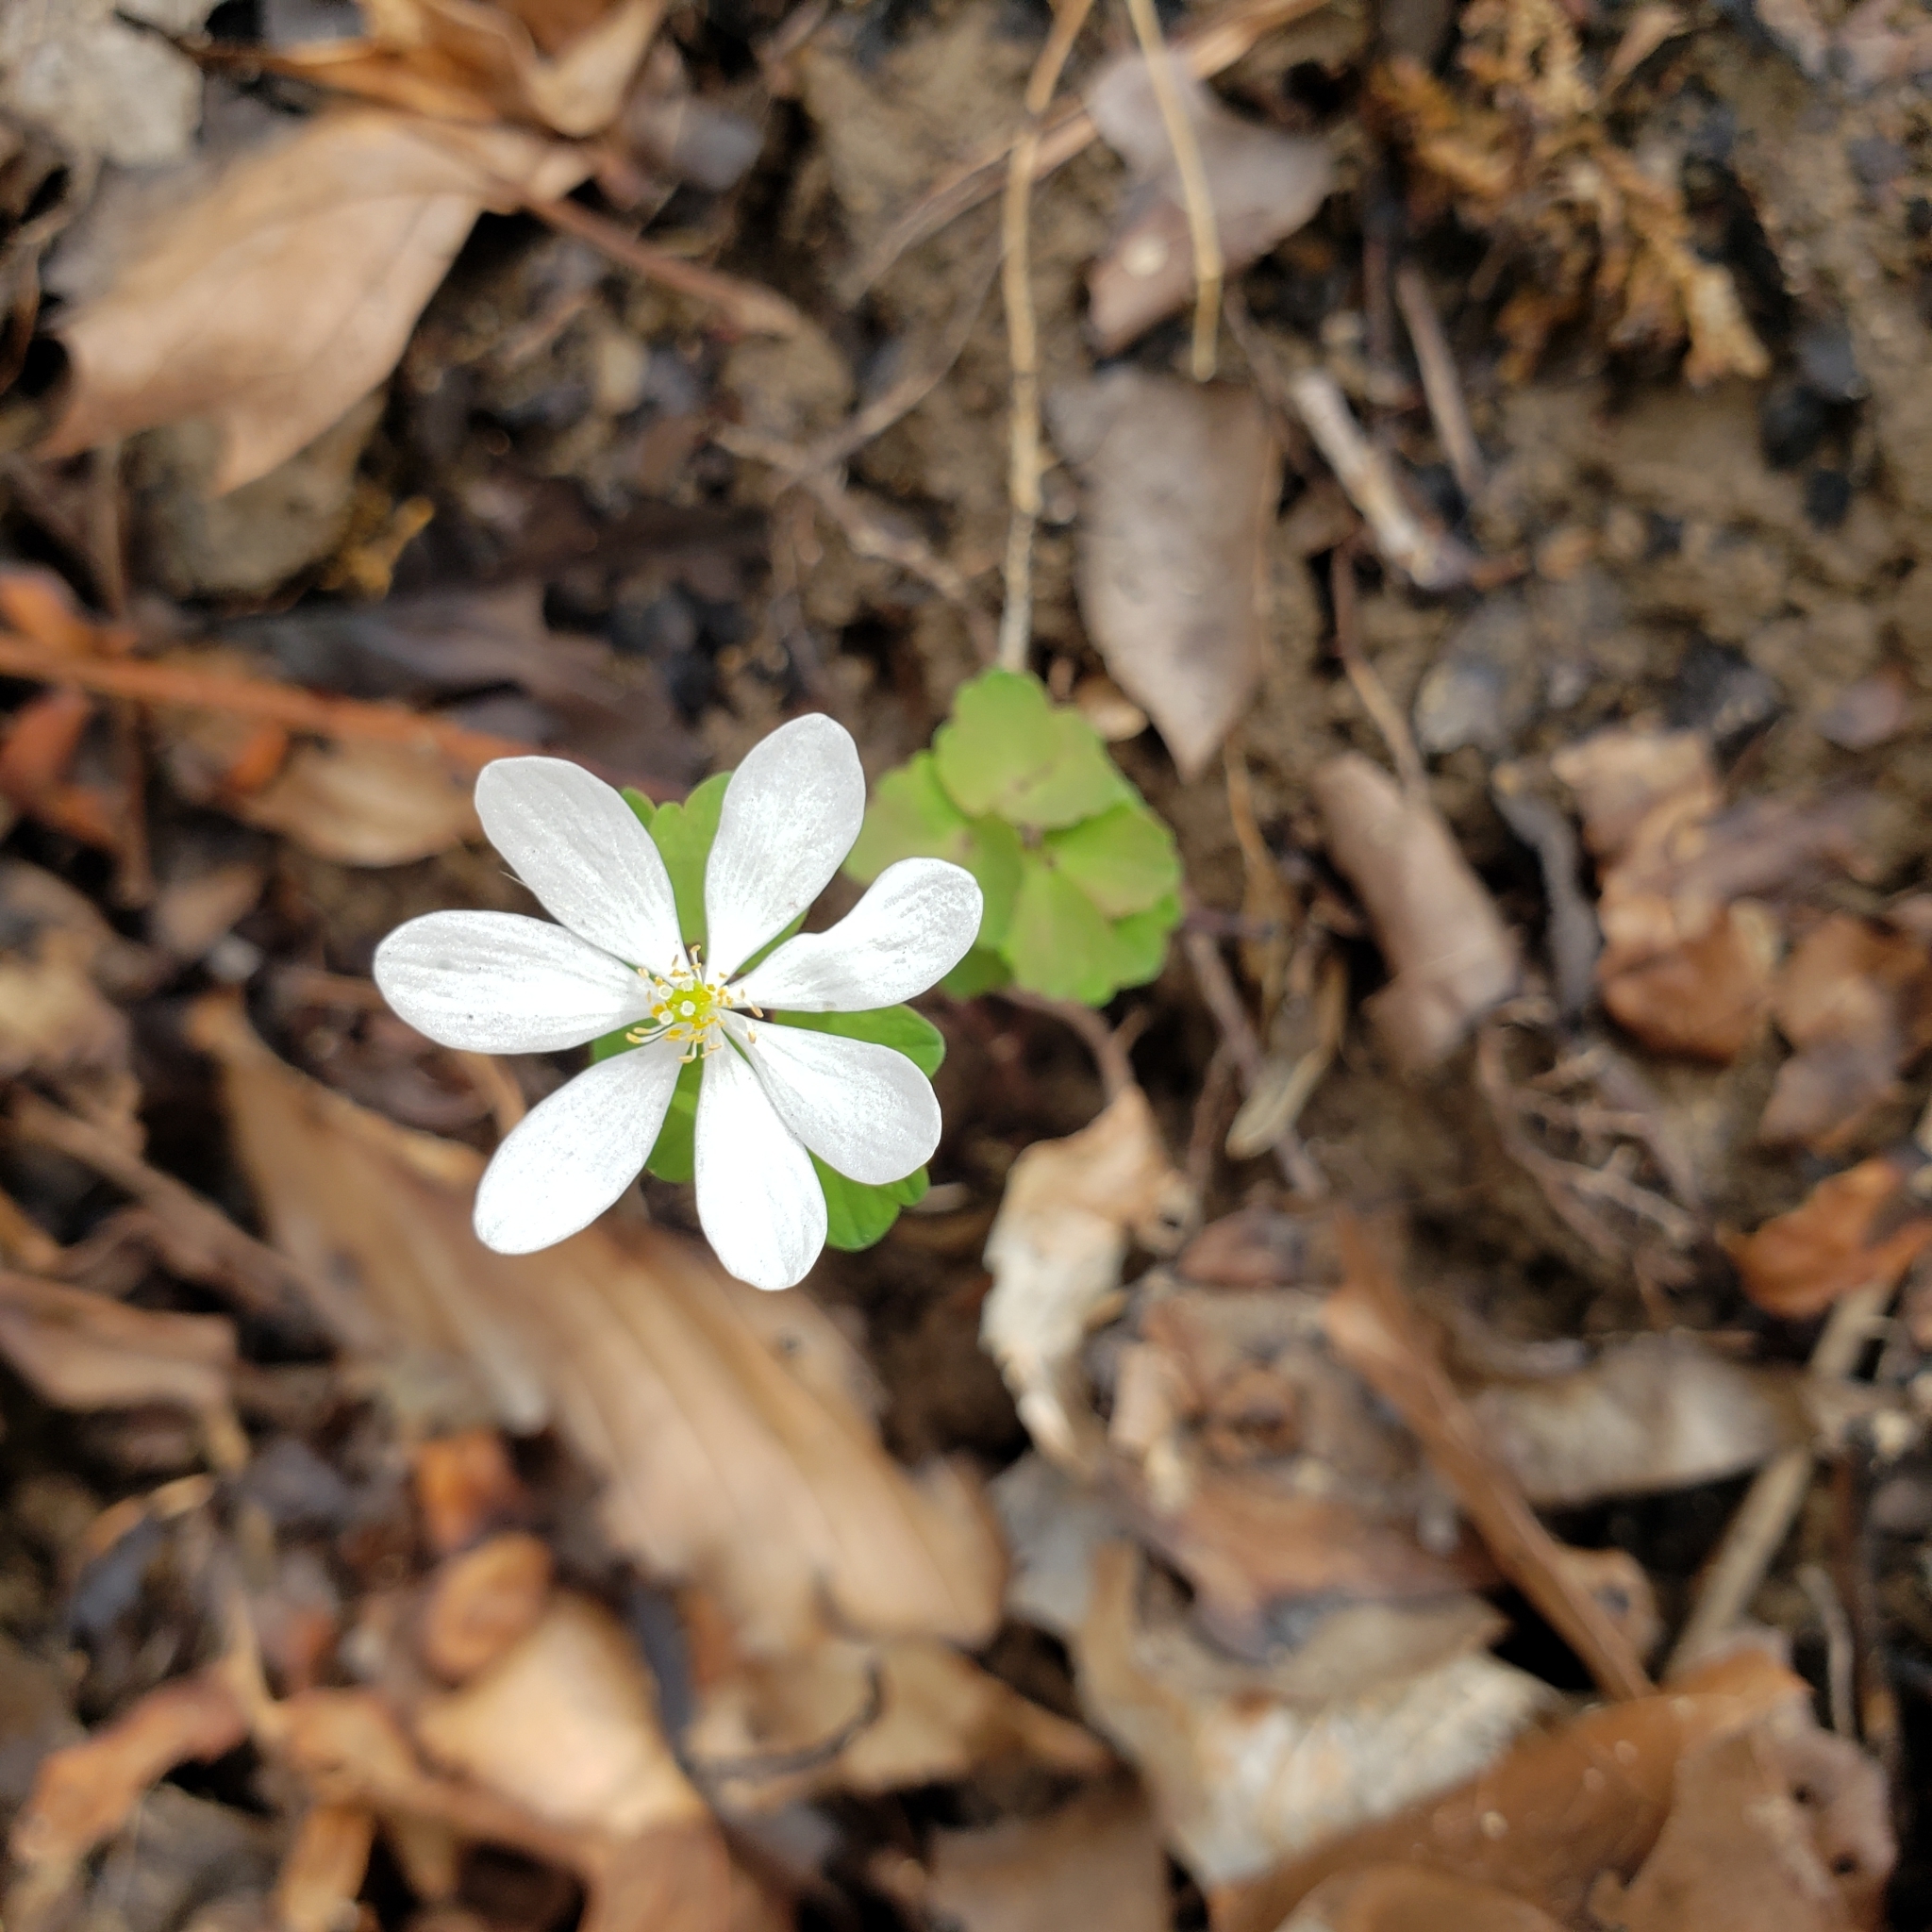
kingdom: Plantae
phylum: Tracheophyta
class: Magnoliopsida
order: Ranunculales
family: Ranunculaceae
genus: Thalictrum
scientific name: Thalictrum thalictroides
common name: Rue-anemone
